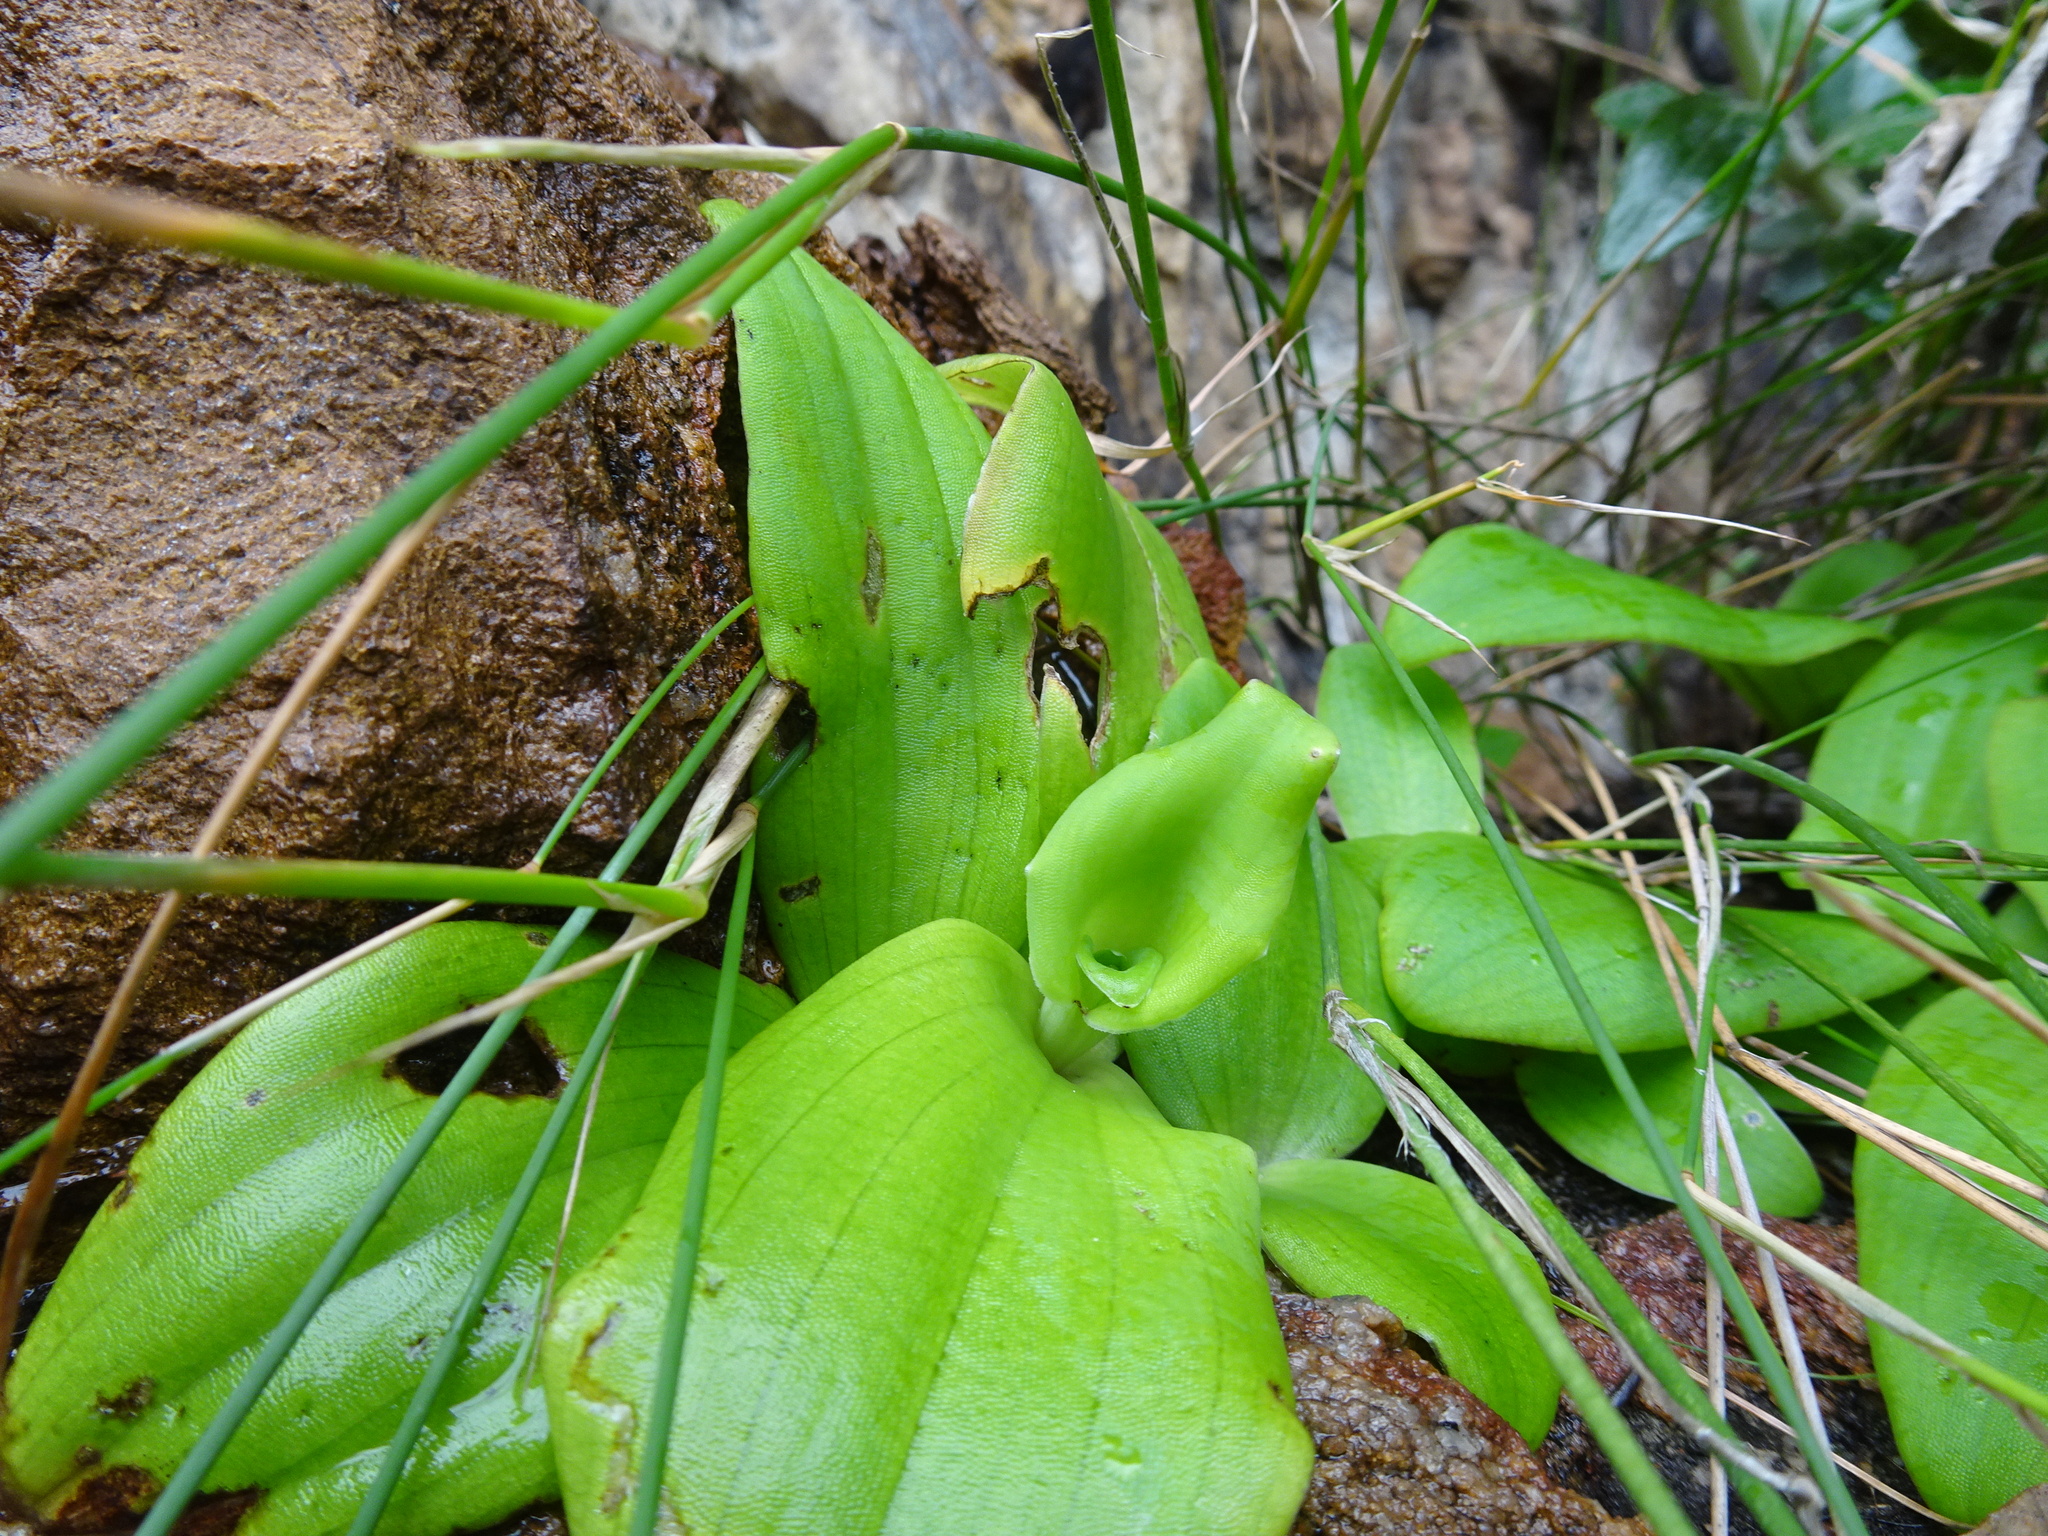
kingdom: Plantae
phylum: Tracheophyta
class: Liliopsida
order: Asparagales
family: Orchidaceae
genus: Satyrium
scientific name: Satyrium odorum
